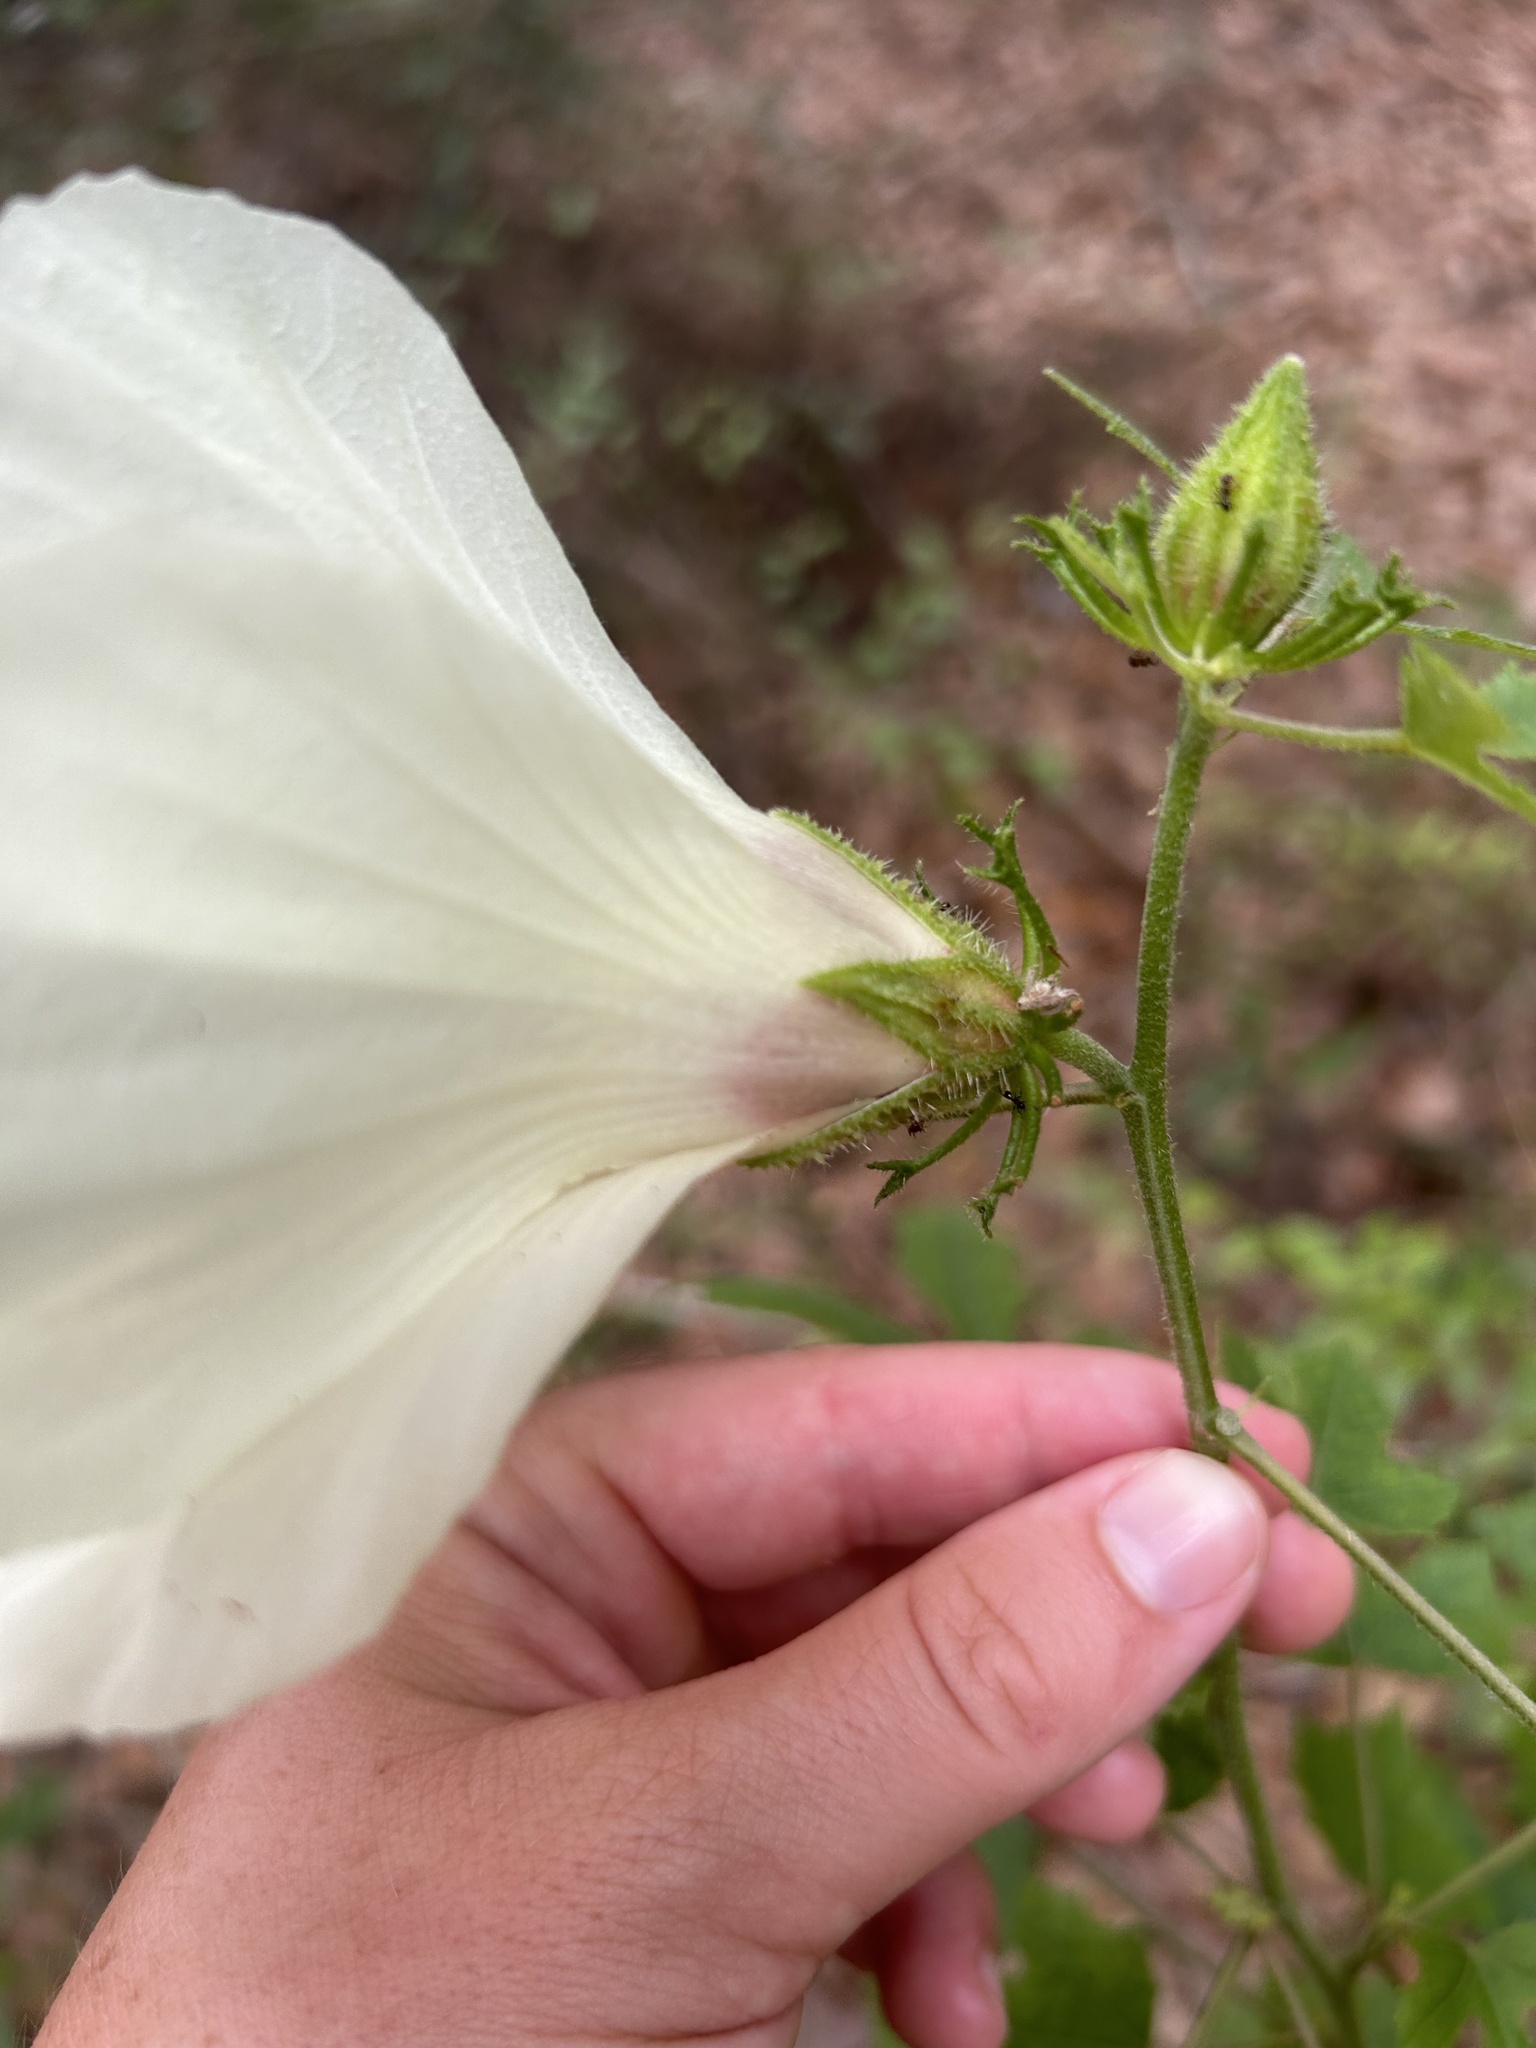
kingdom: Plantae
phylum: Tracheophyta
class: Magnoliopsida
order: Malvales
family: Malvaceae
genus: Hibiscus
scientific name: Hibiscus aculeatus
